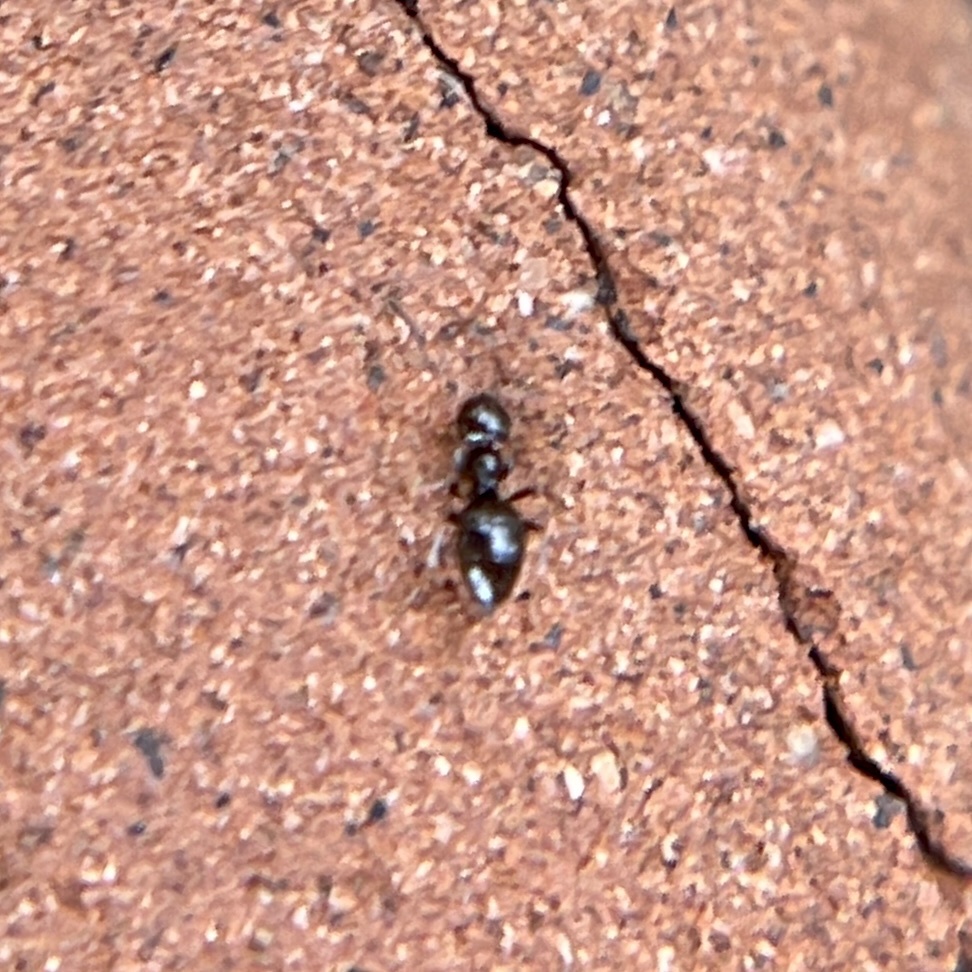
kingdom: Animalia
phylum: Arthropoda
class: Insecta
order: Hymenoptera
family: Formicidae
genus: Brachymyrmex
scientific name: Brachymyrmex patagonicus
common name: Dark rover ant
